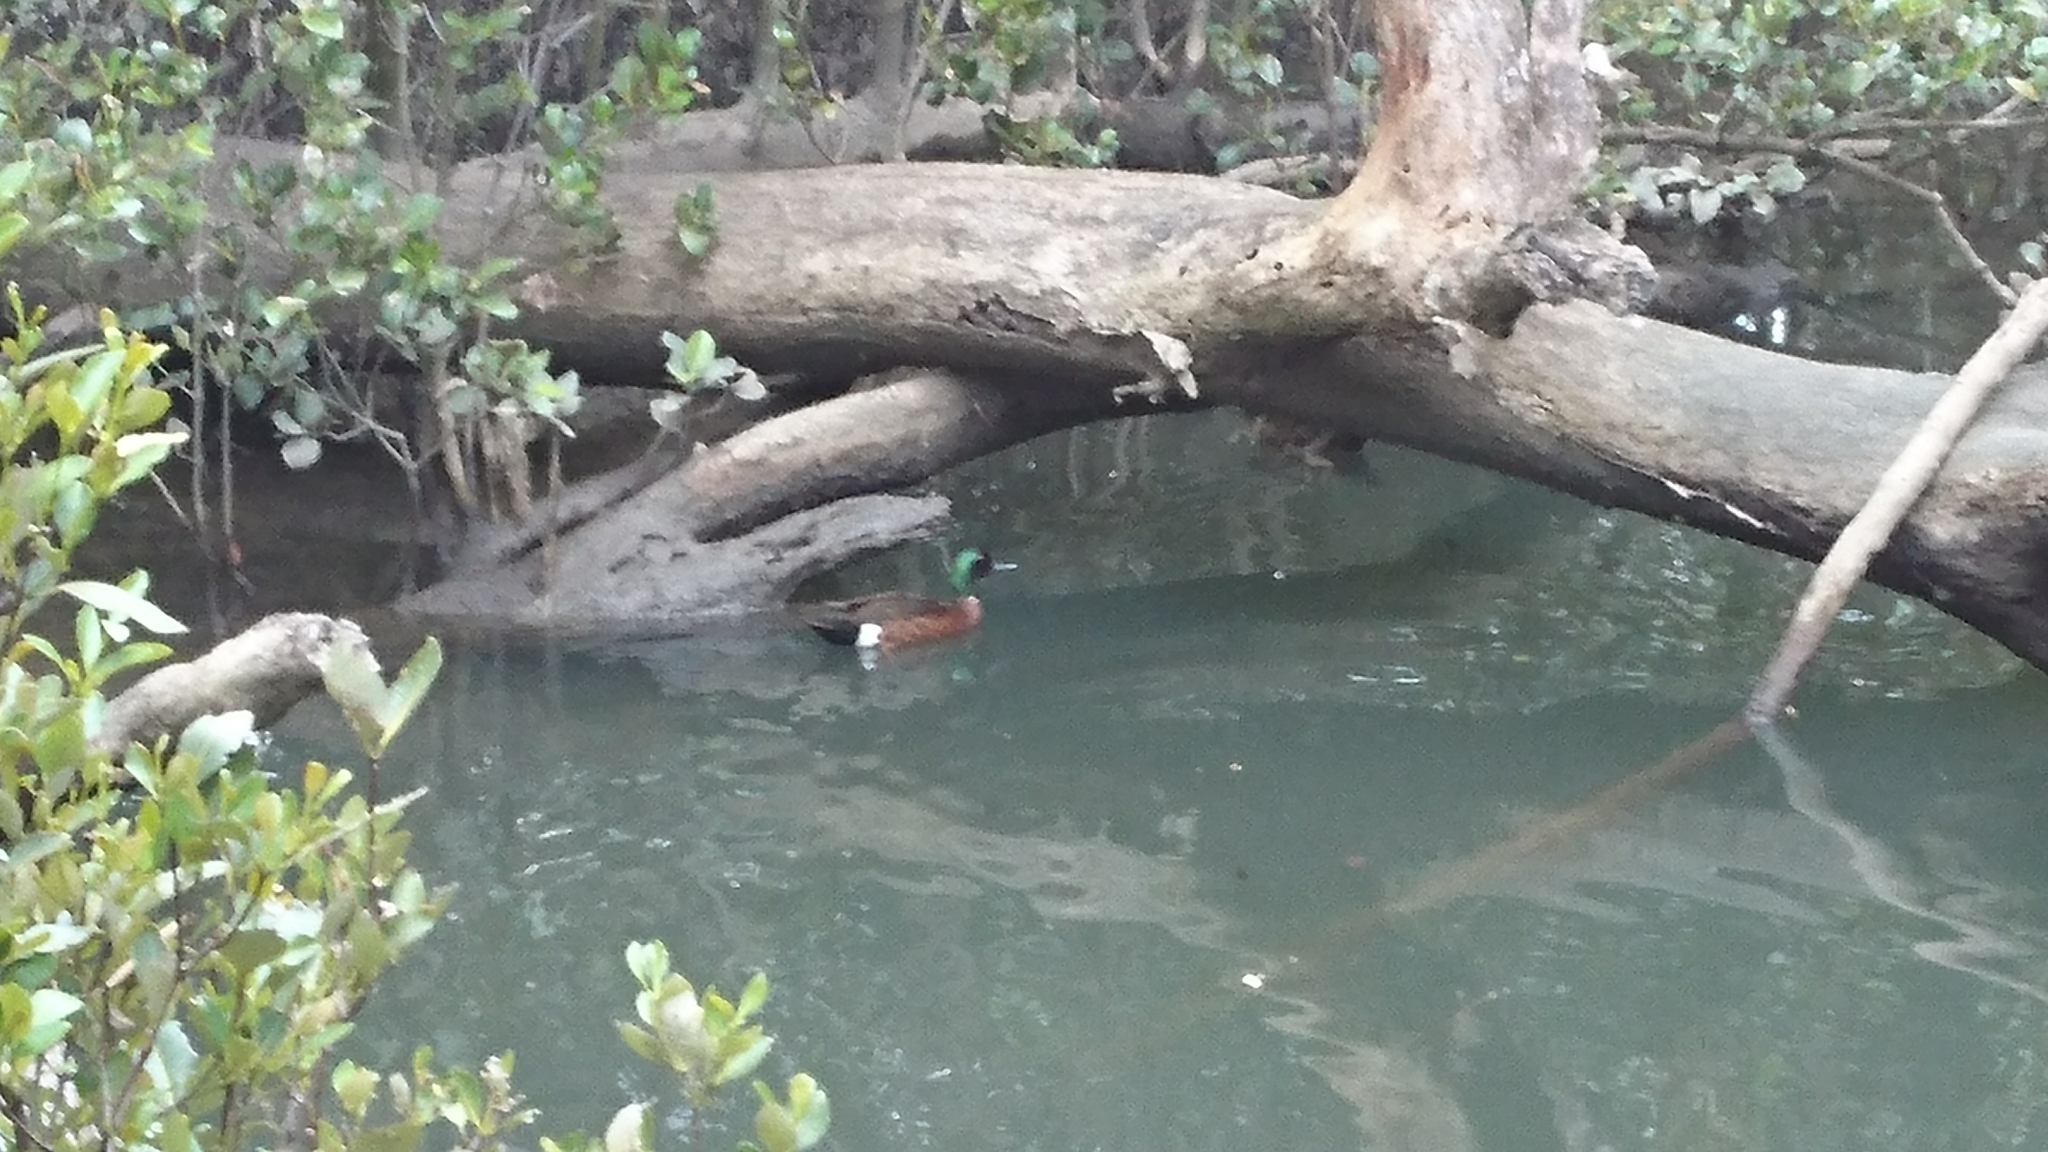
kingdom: Animalia
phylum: Chordata
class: Aves
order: Anseriformes
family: Anatidae
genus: Anas
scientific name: Anas castanea
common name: Chestnut teal
